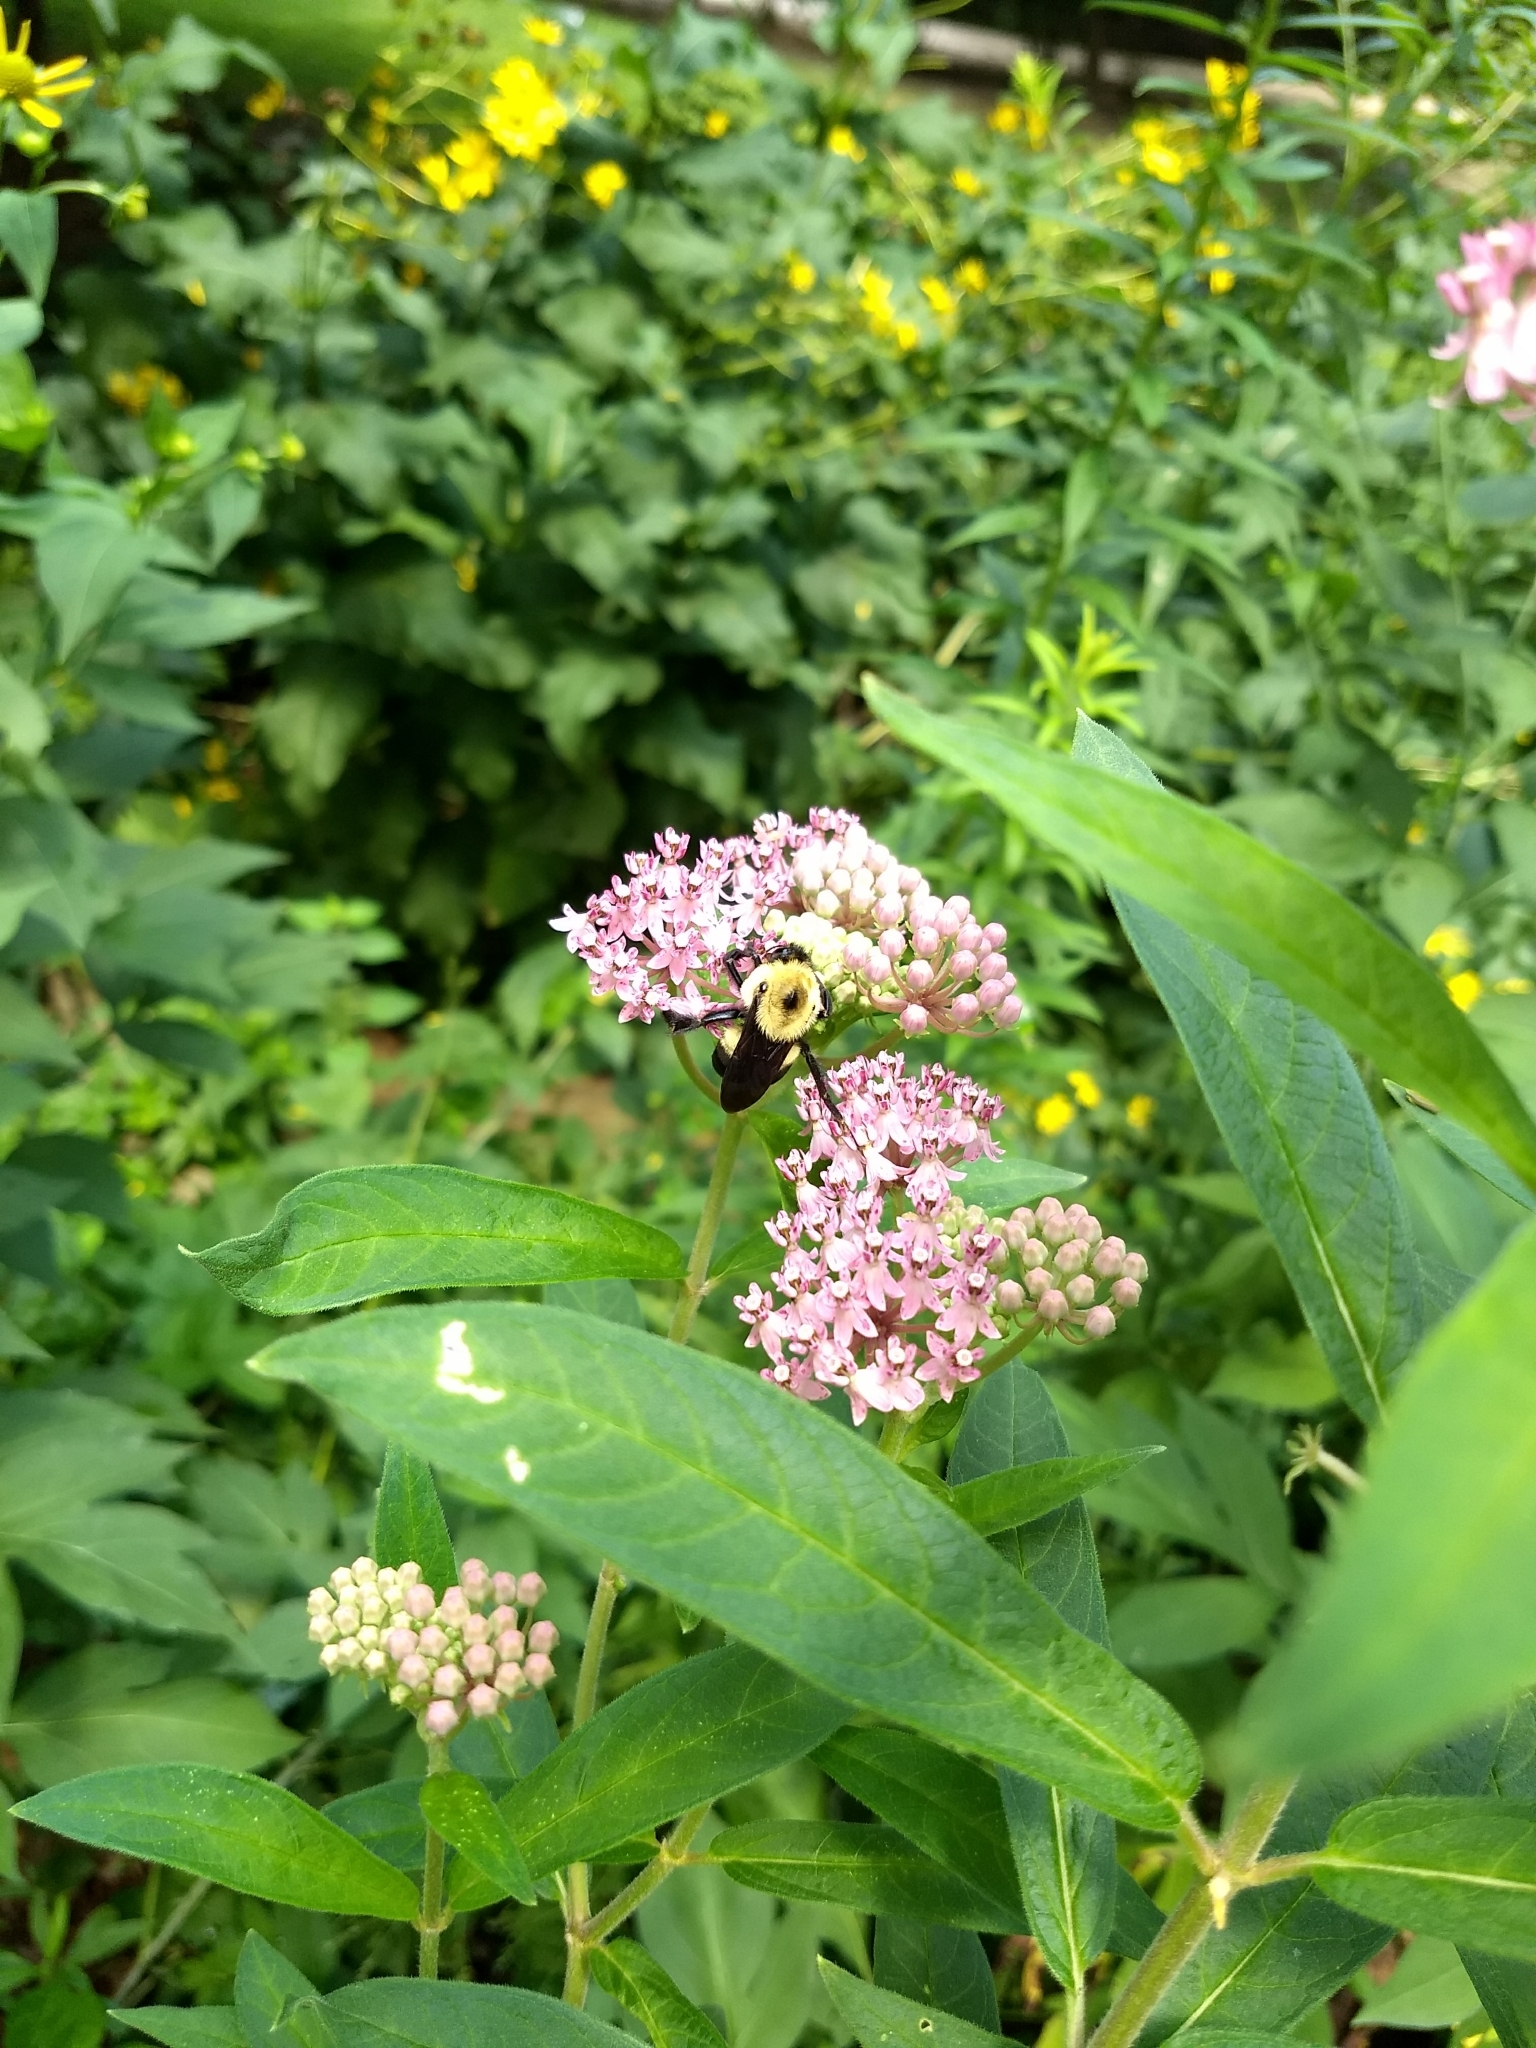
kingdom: Animalia
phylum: Arthropoda
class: Insecta
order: Hymenoptera
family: Apidae
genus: Bombus
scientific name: Bombus griseocollis
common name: Brown-belted bumble bee
